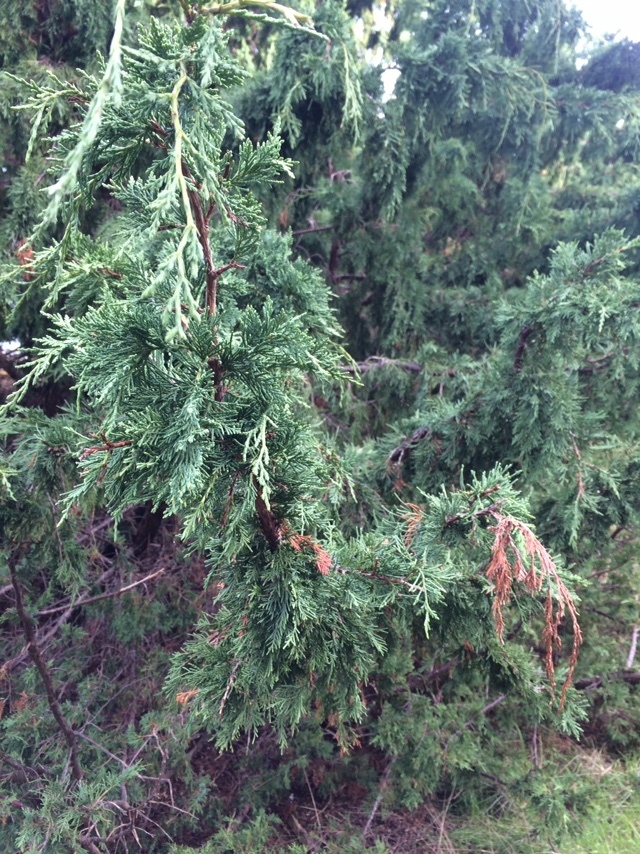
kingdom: Plantae
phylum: Tracheophyta
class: Pinopsida
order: Pinales
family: Cupressaceae
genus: Juniperus
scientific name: Juniperus scopulorum
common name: Rocky mountain juniper
